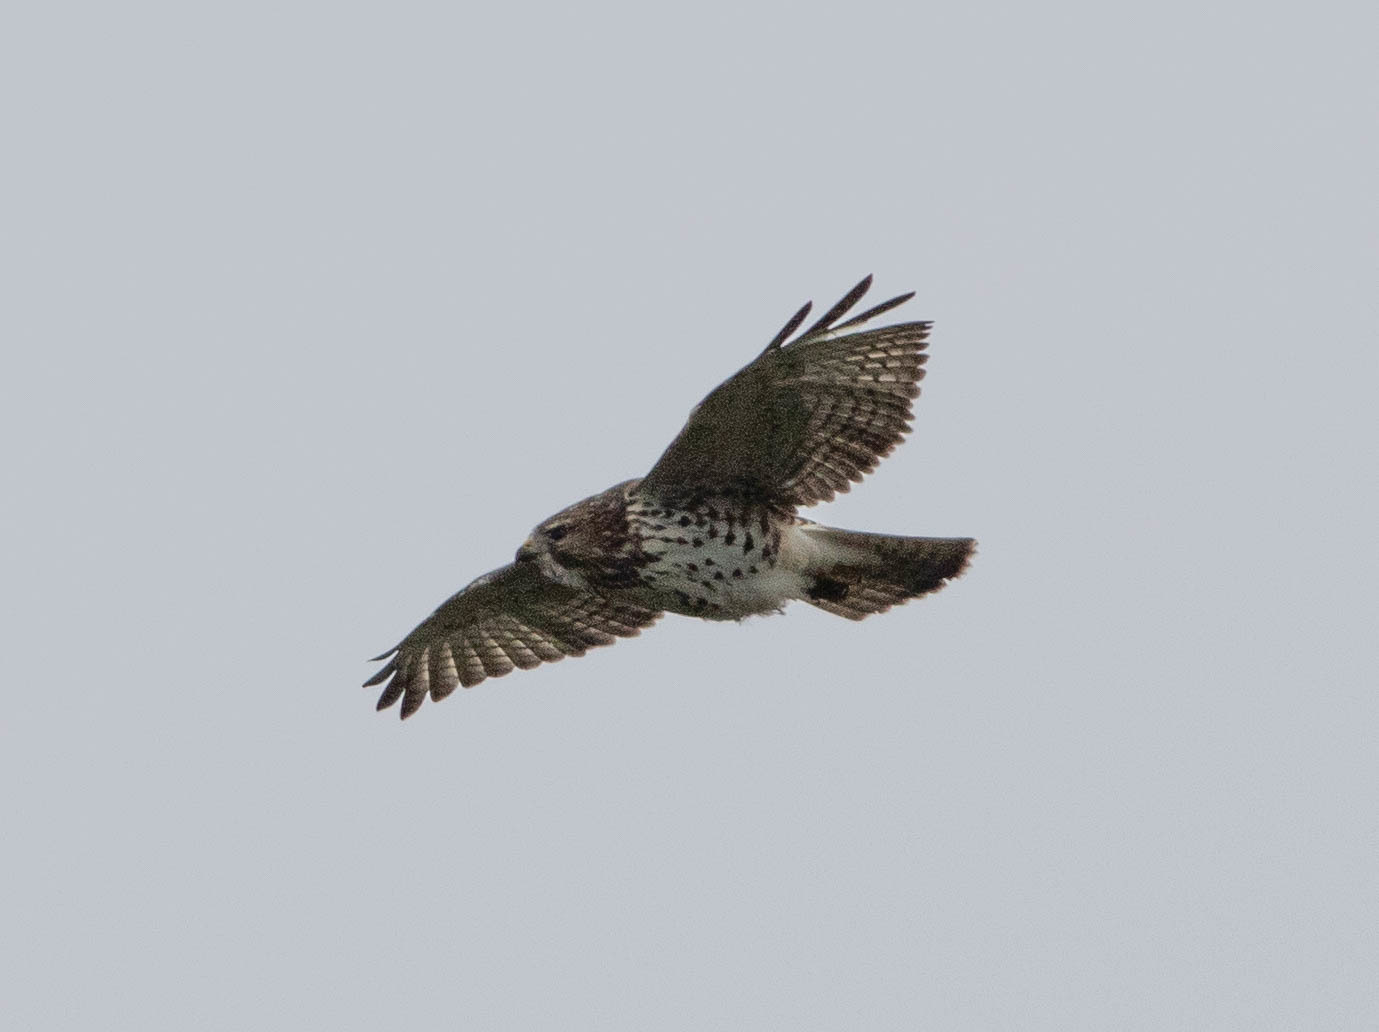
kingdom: Animalia
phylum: Chordata
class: Aves
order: Accipitriformes
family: Accipitridae
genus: Buteo
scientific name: Buteo platypterus
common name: Broad-winged hawk
